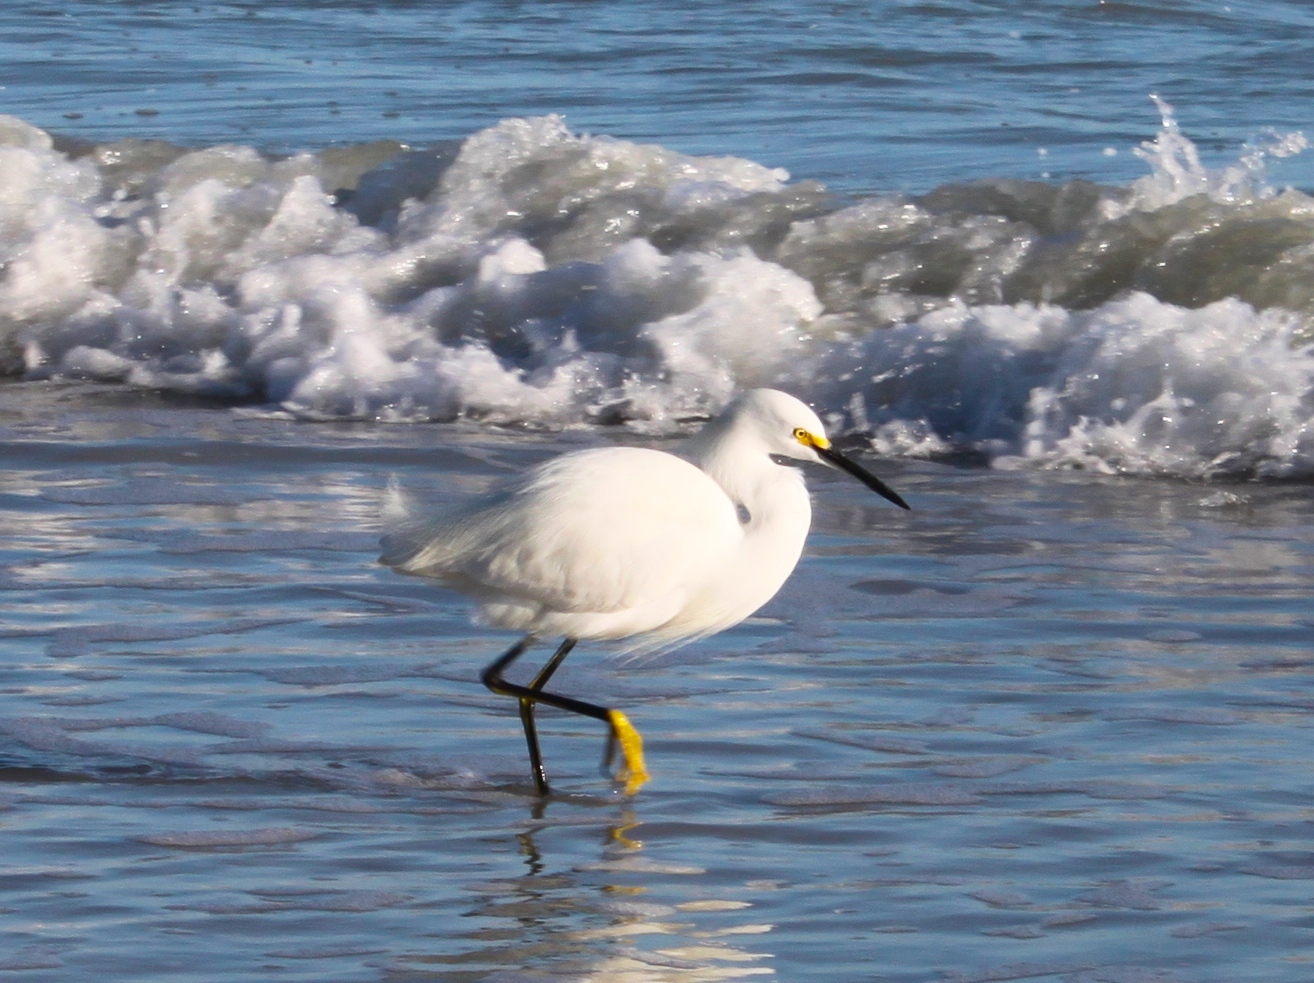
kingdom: Animalia
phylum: Chordata
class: Aves
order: Pelecaniformes
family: Ardeidae
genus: Egretta
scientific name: Egretta thula
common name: Snowy egret
